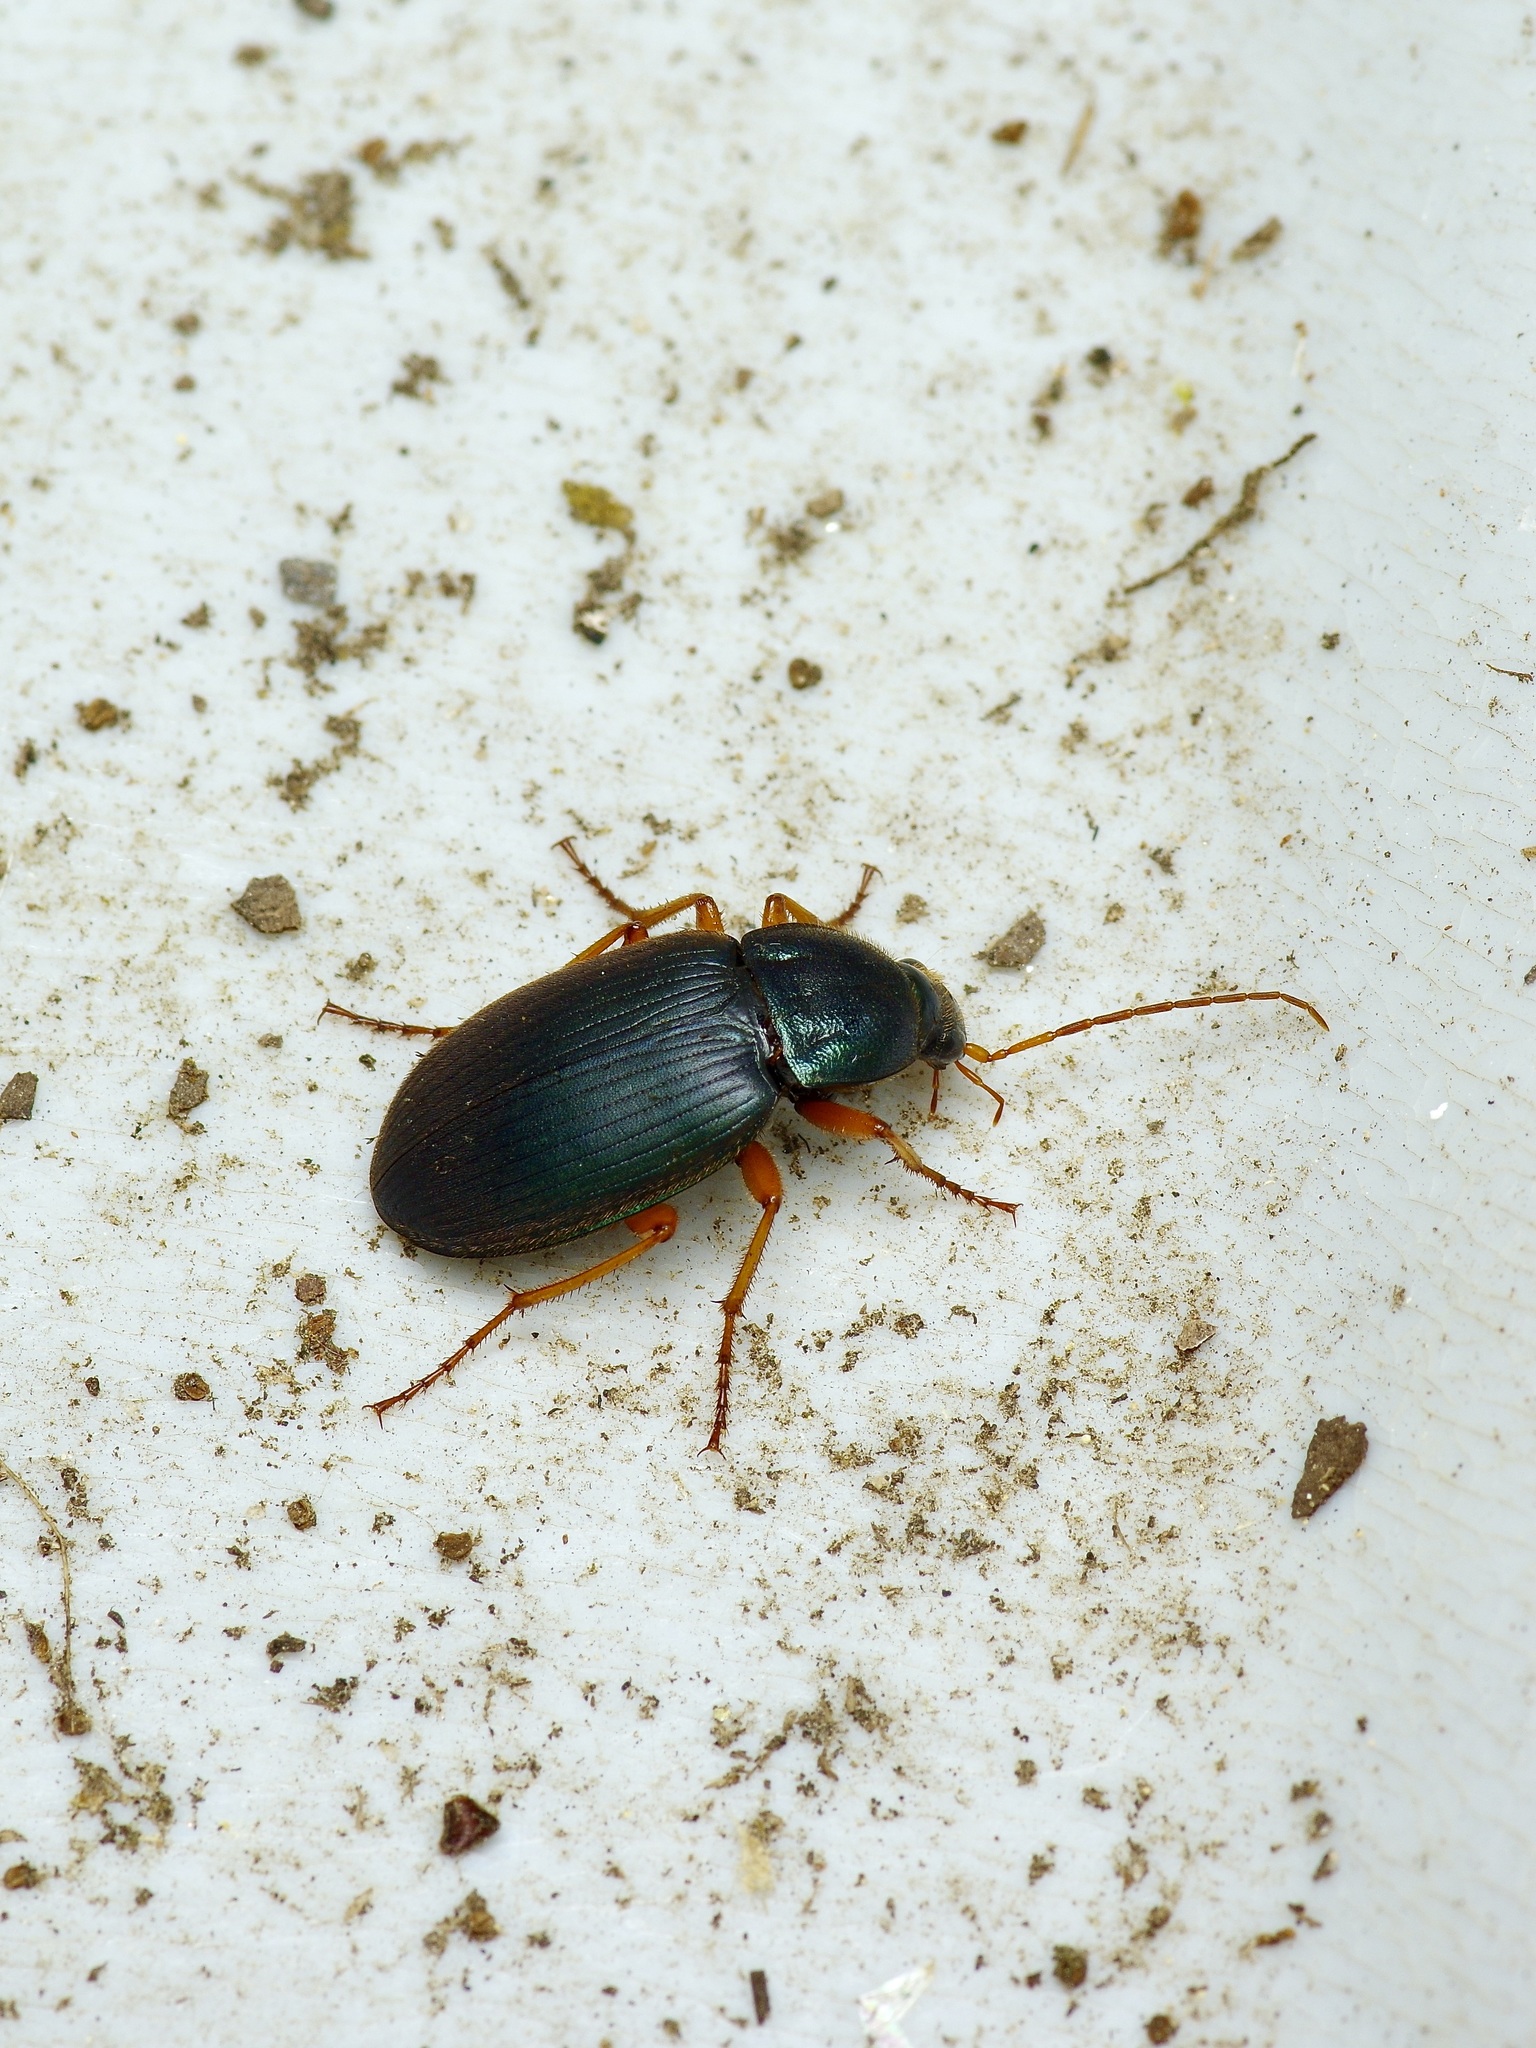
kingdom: Animalia
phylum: Arthropoda
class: Insecta
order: Coleoptera
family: Carabidae
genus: Chlaenius
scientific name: Chlaenius texanus
